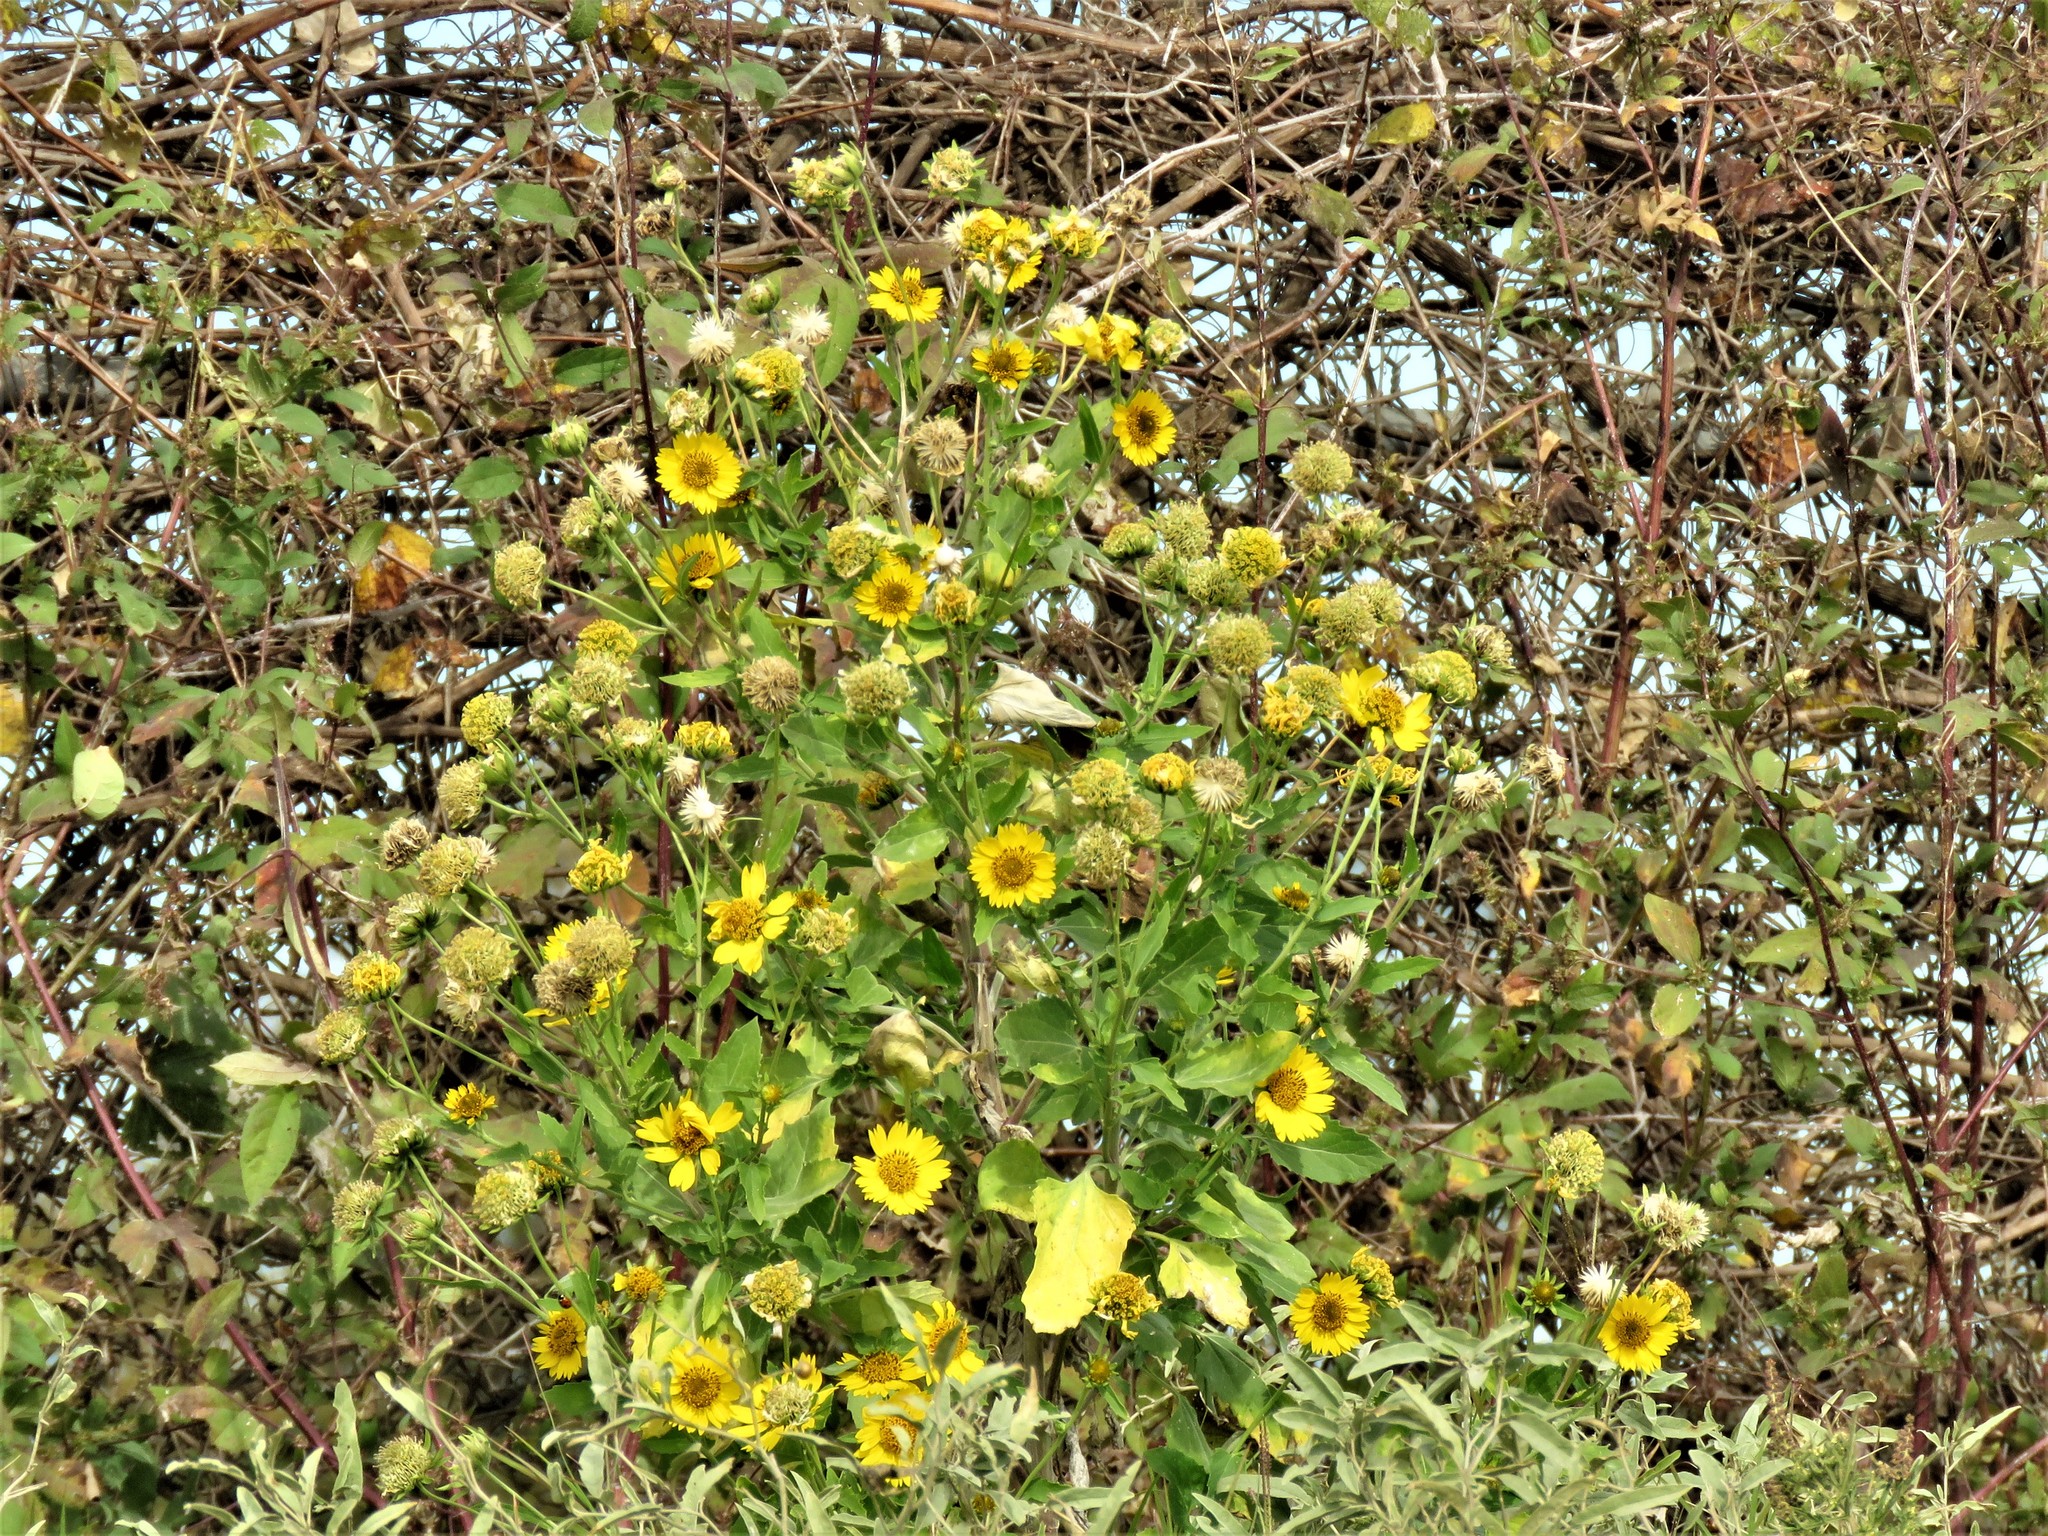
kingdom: Plantae
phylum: Tracheophyta
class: Magnoliopsida
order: Asterales
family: Asteraceae
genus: Verbesina
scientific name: Verbesina encelioides
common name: Golden crownbeard
